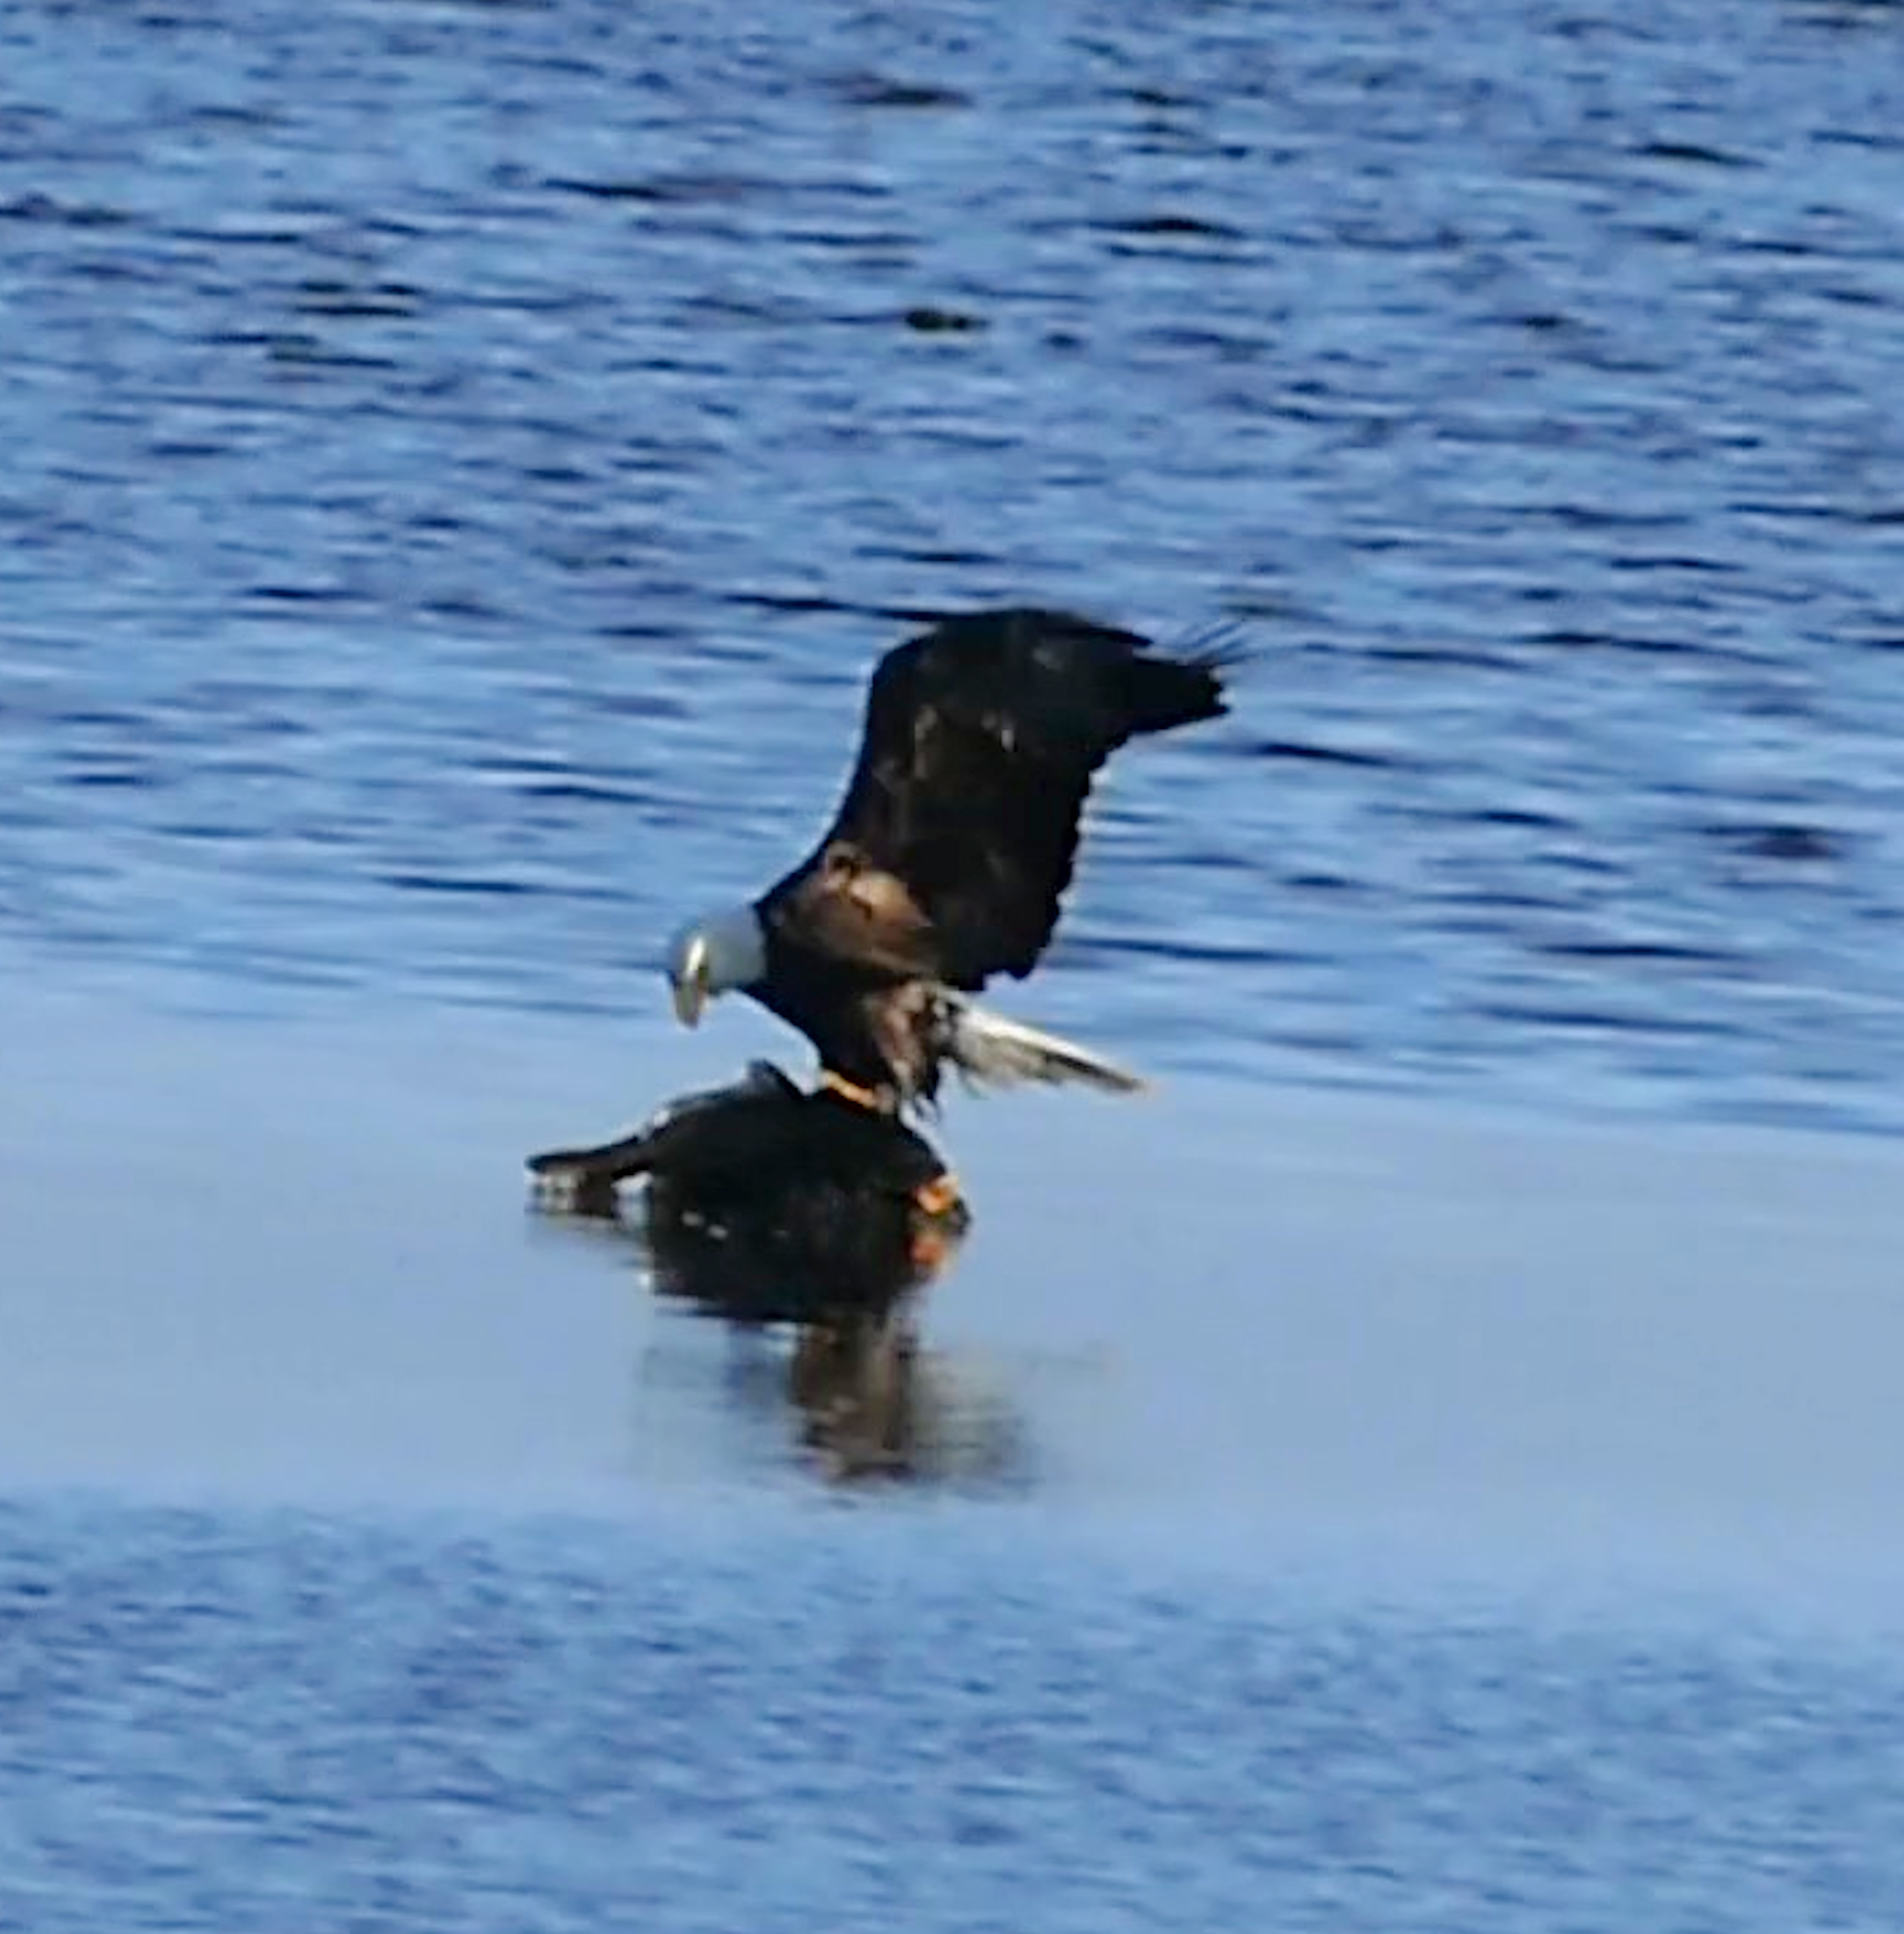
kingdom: Animalia
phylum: Chordata
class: Aves
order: Accipitriformes
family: Accipitridae
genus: Haliaeetus
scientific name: Haliaeetus leucocephalus
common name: Bald eagle
